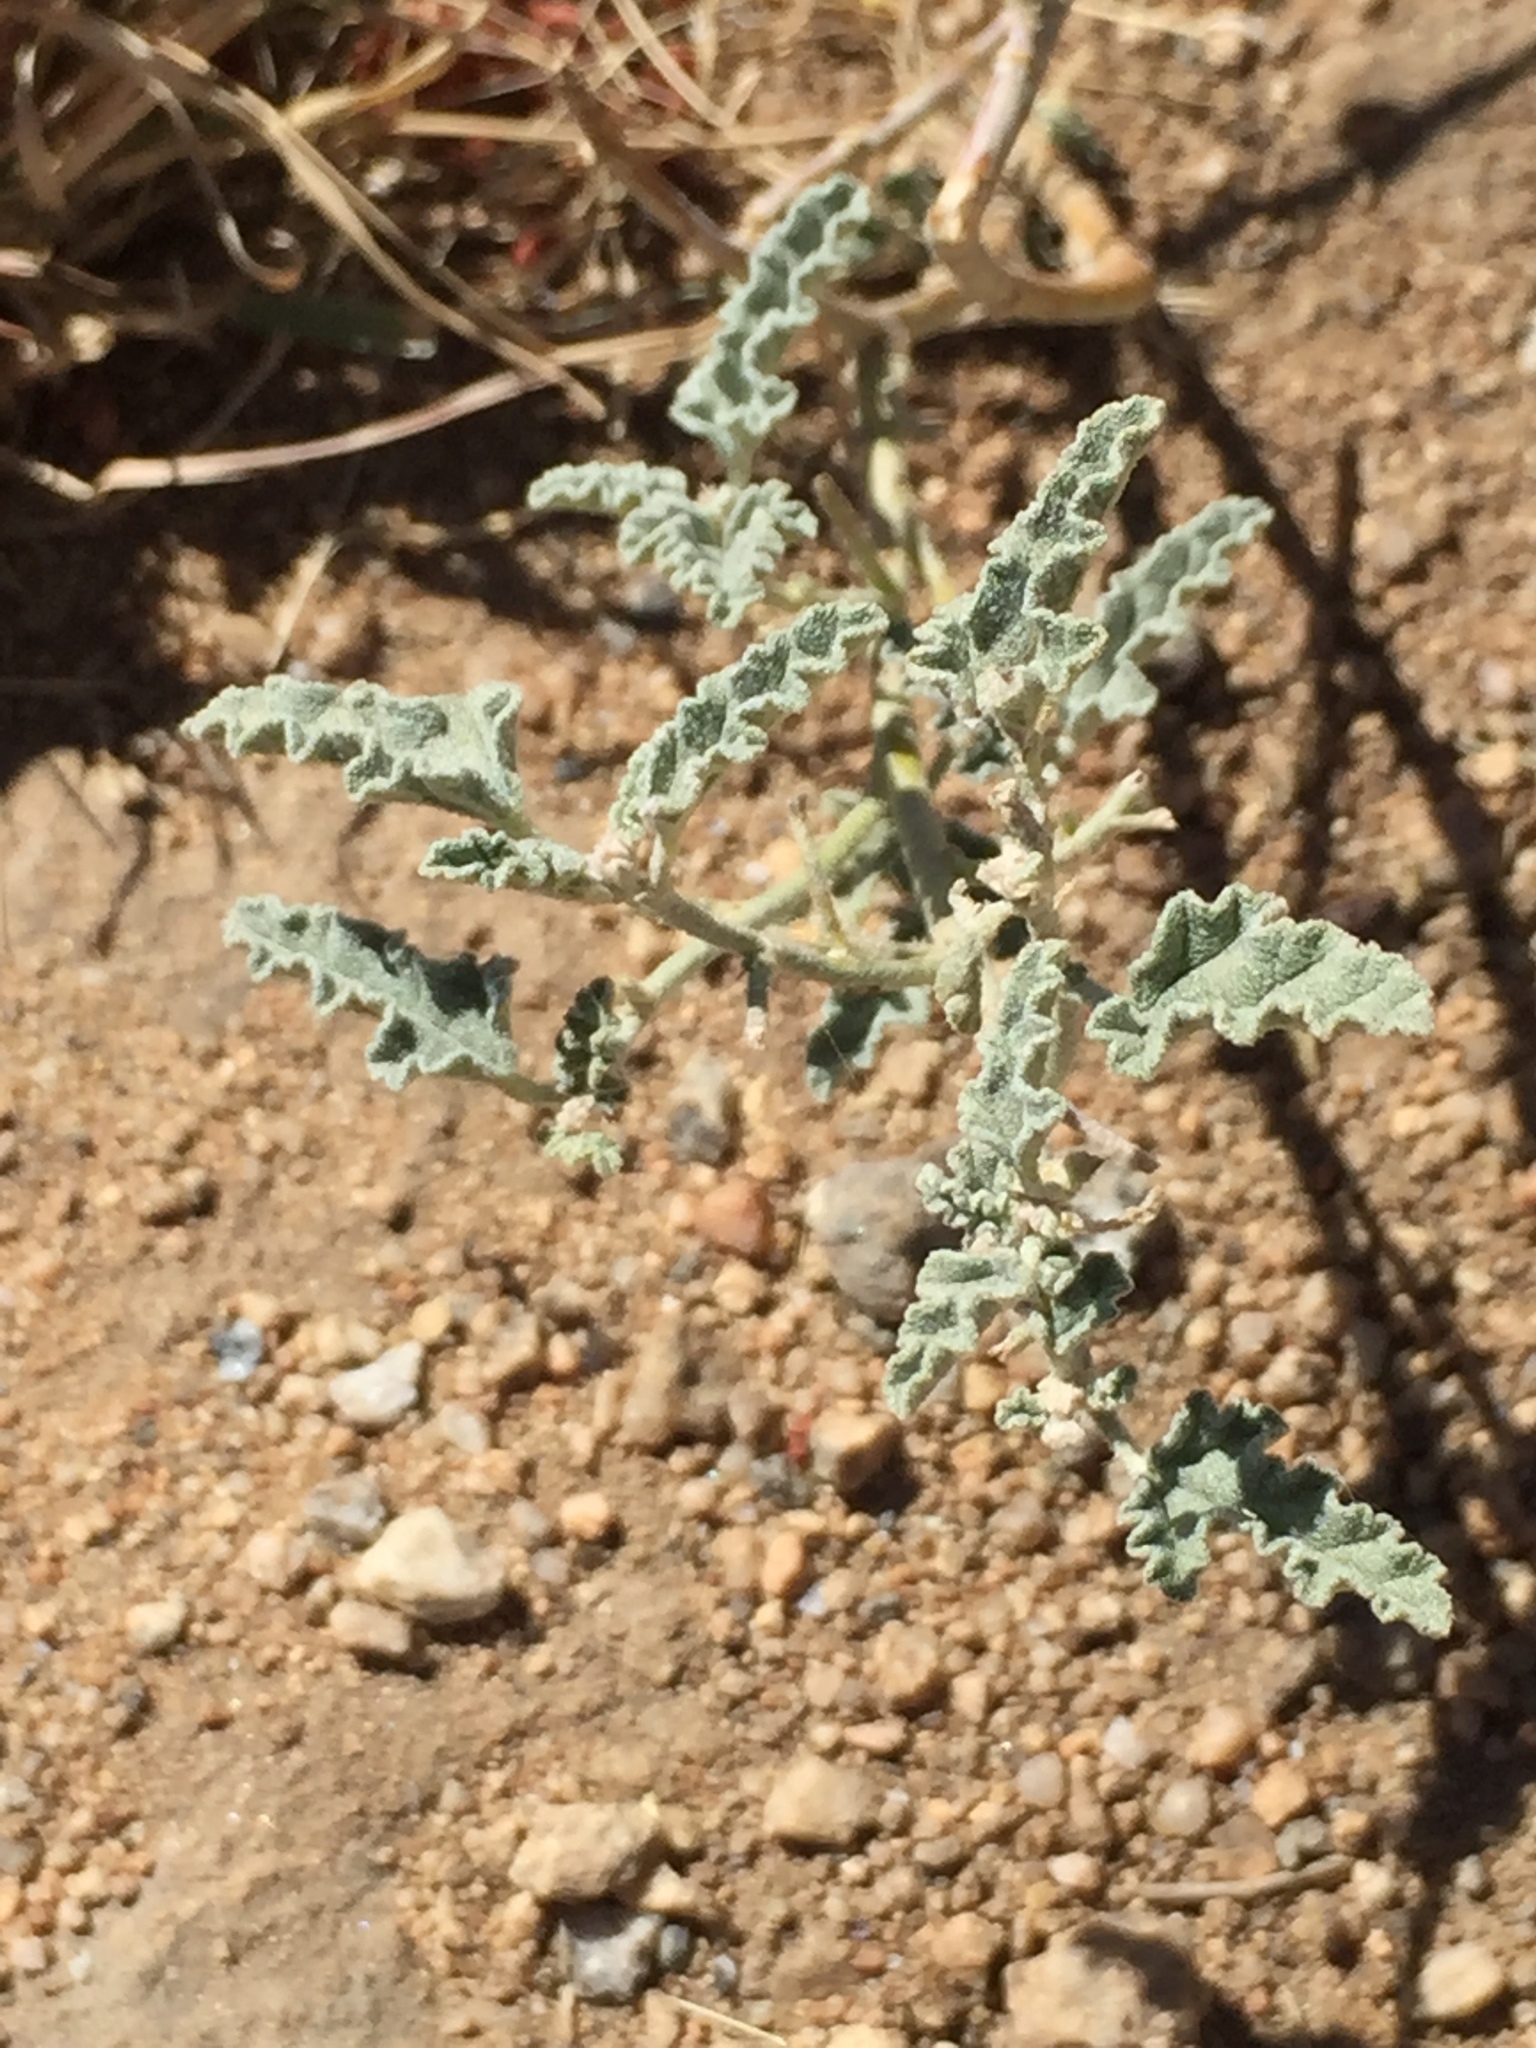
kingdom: Plantae
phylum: Tracheophyta
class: Magnoliopsida
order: Malvales
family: Malvaceae
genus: Sphaeralcea
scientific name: Sphaeralcea ambigua
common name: Apricot globe-mallow
